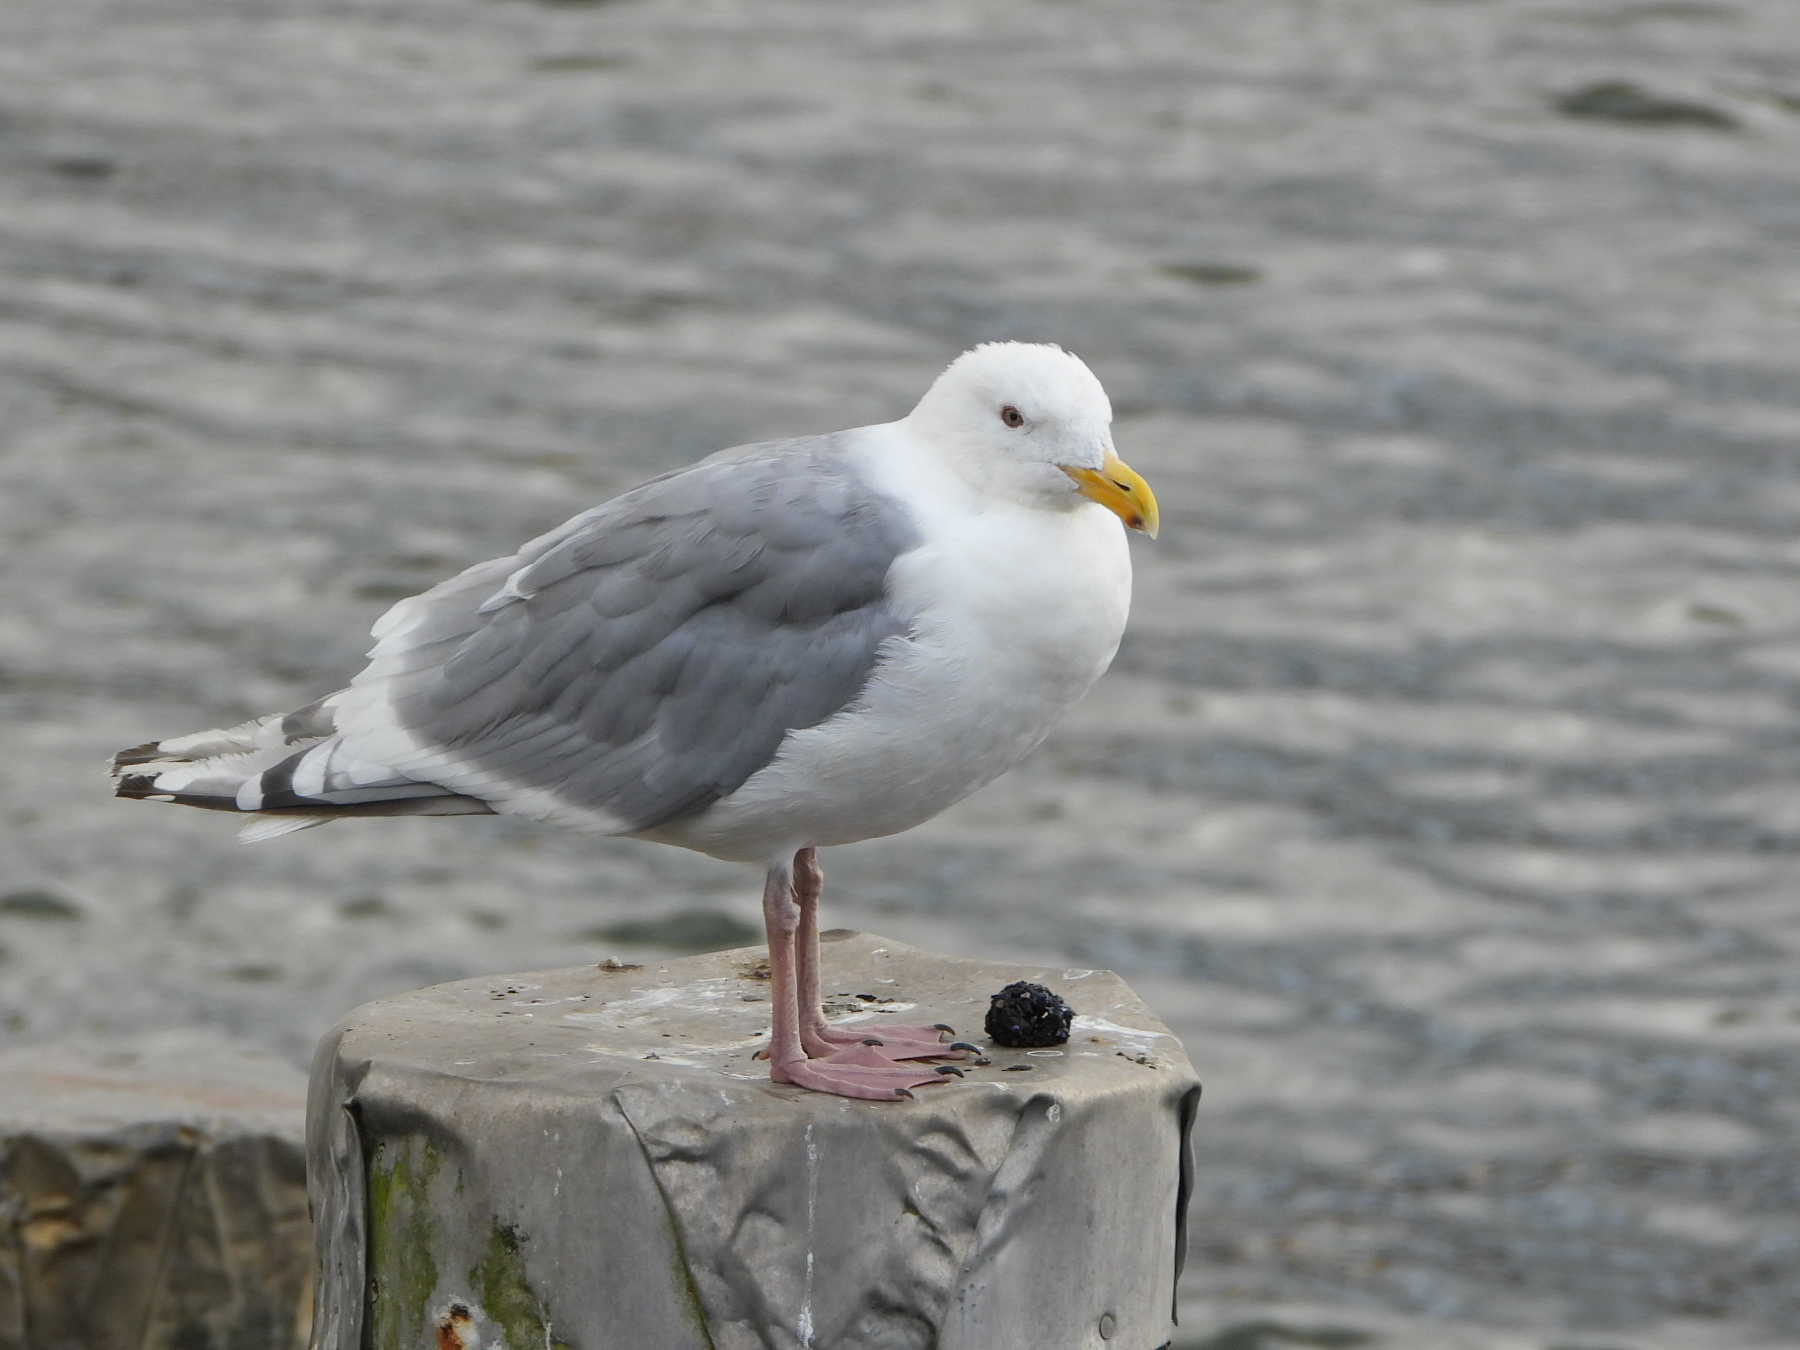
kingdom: Animalia
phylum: Chordata
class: Aves
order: Charadriiformes
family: Laridae
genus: Larus
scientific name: Larus
